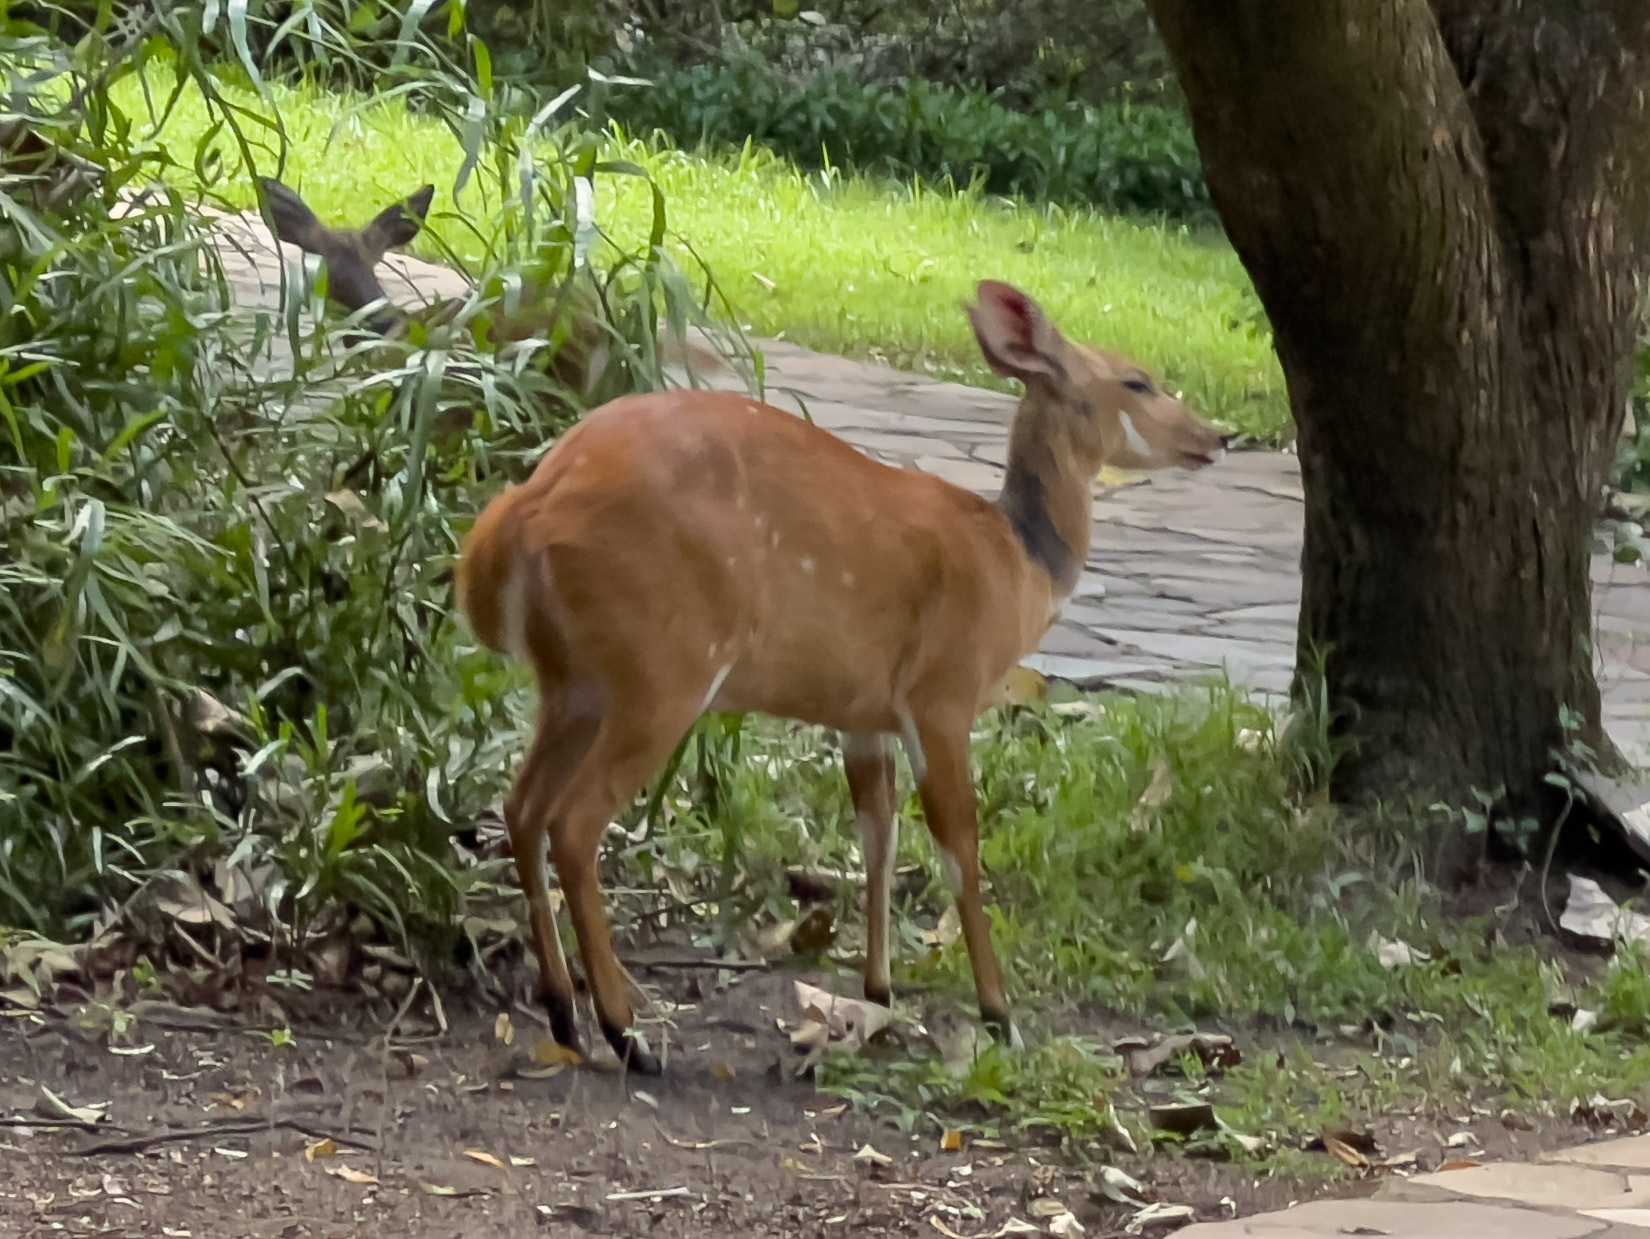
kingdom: Animalia
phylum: Chordata
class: Mammalia
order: Artiodactyla
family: Bovidae
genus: Tragelaphus
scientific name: Tragelaphus scriptus
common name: Bushbuck
